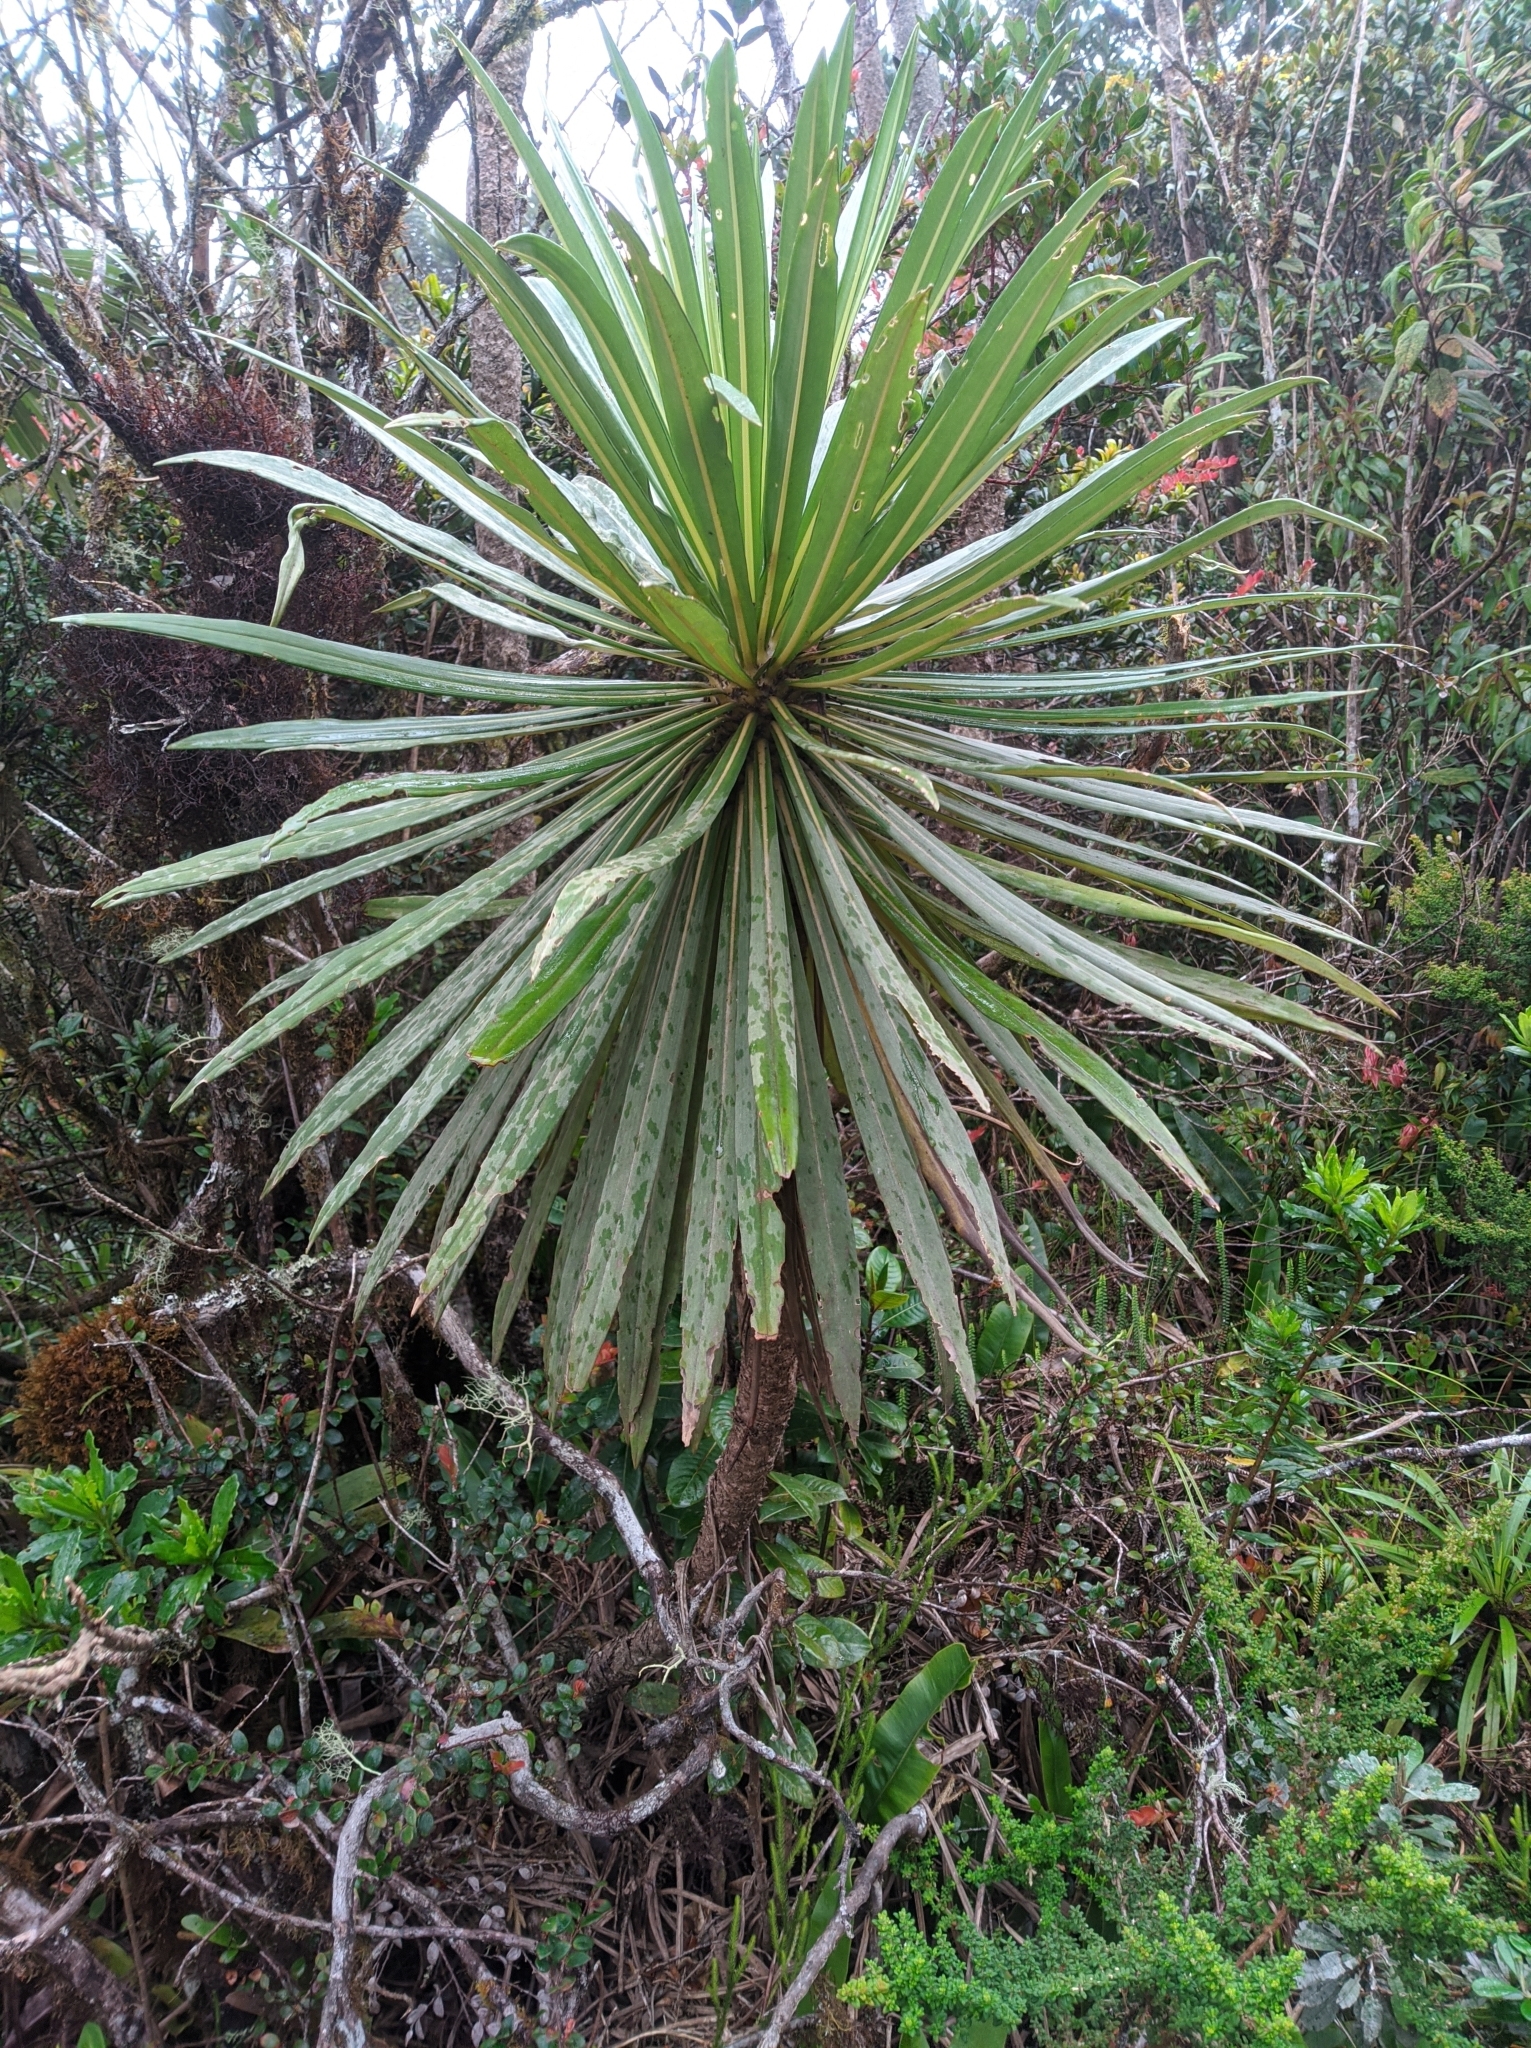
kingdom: Plantae
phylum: Tracheophyta
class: Magnoliopsida
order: Asterales
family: Asteraceae
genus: Espeletia
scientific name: Espeletia paltonioides
